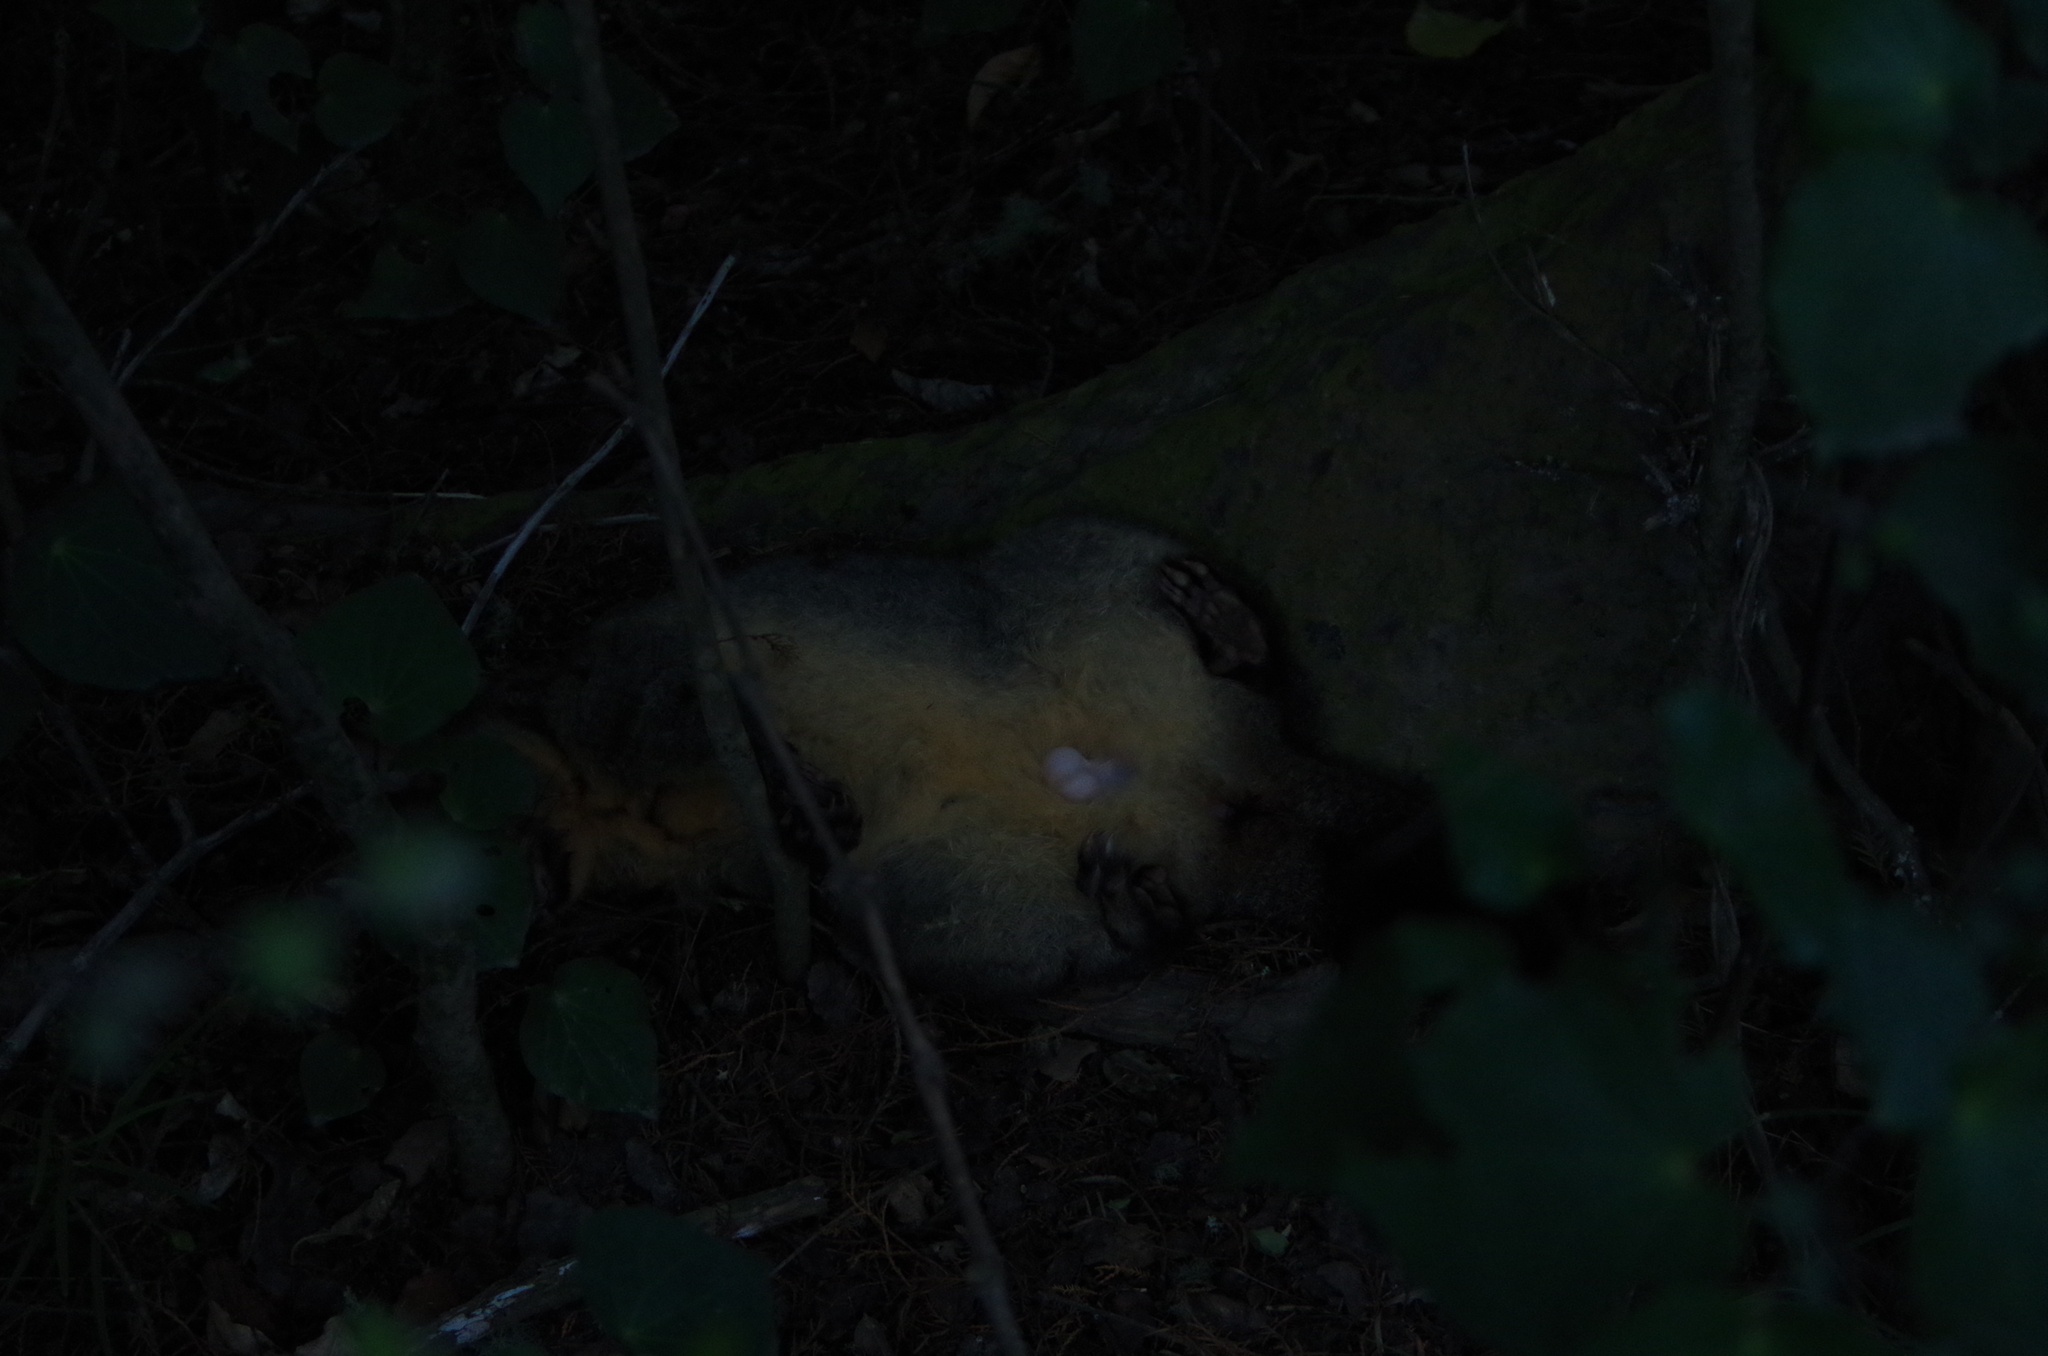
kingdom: Animalia
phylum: Chordata
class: Mammalia
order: Diprotodontia
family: Phalangeridae
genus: Trichosurus
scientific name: Trichosurus vulpecula
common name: Common brushtail
